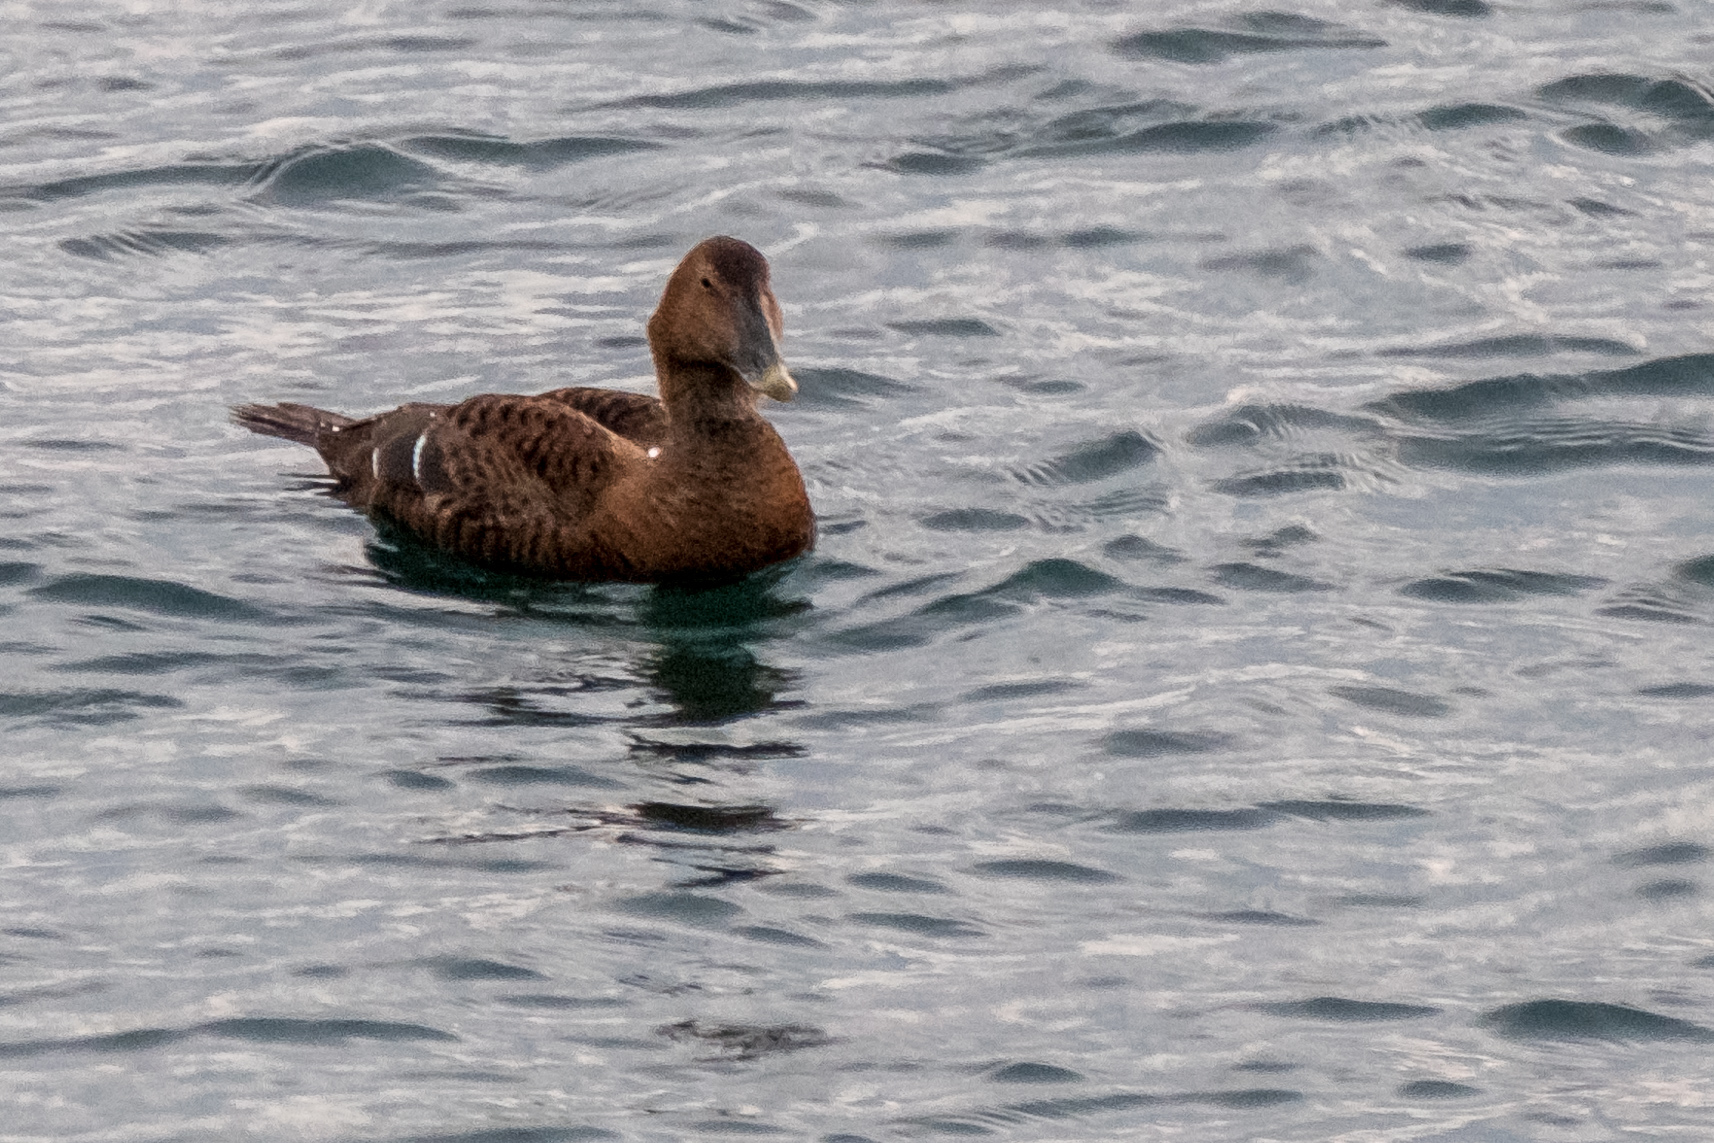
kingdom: Animalia
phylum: Chordata
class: Aves
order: Anseriformes
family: Anatidae
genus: Somateria
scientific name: Somateria mollissima
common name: Common eider
